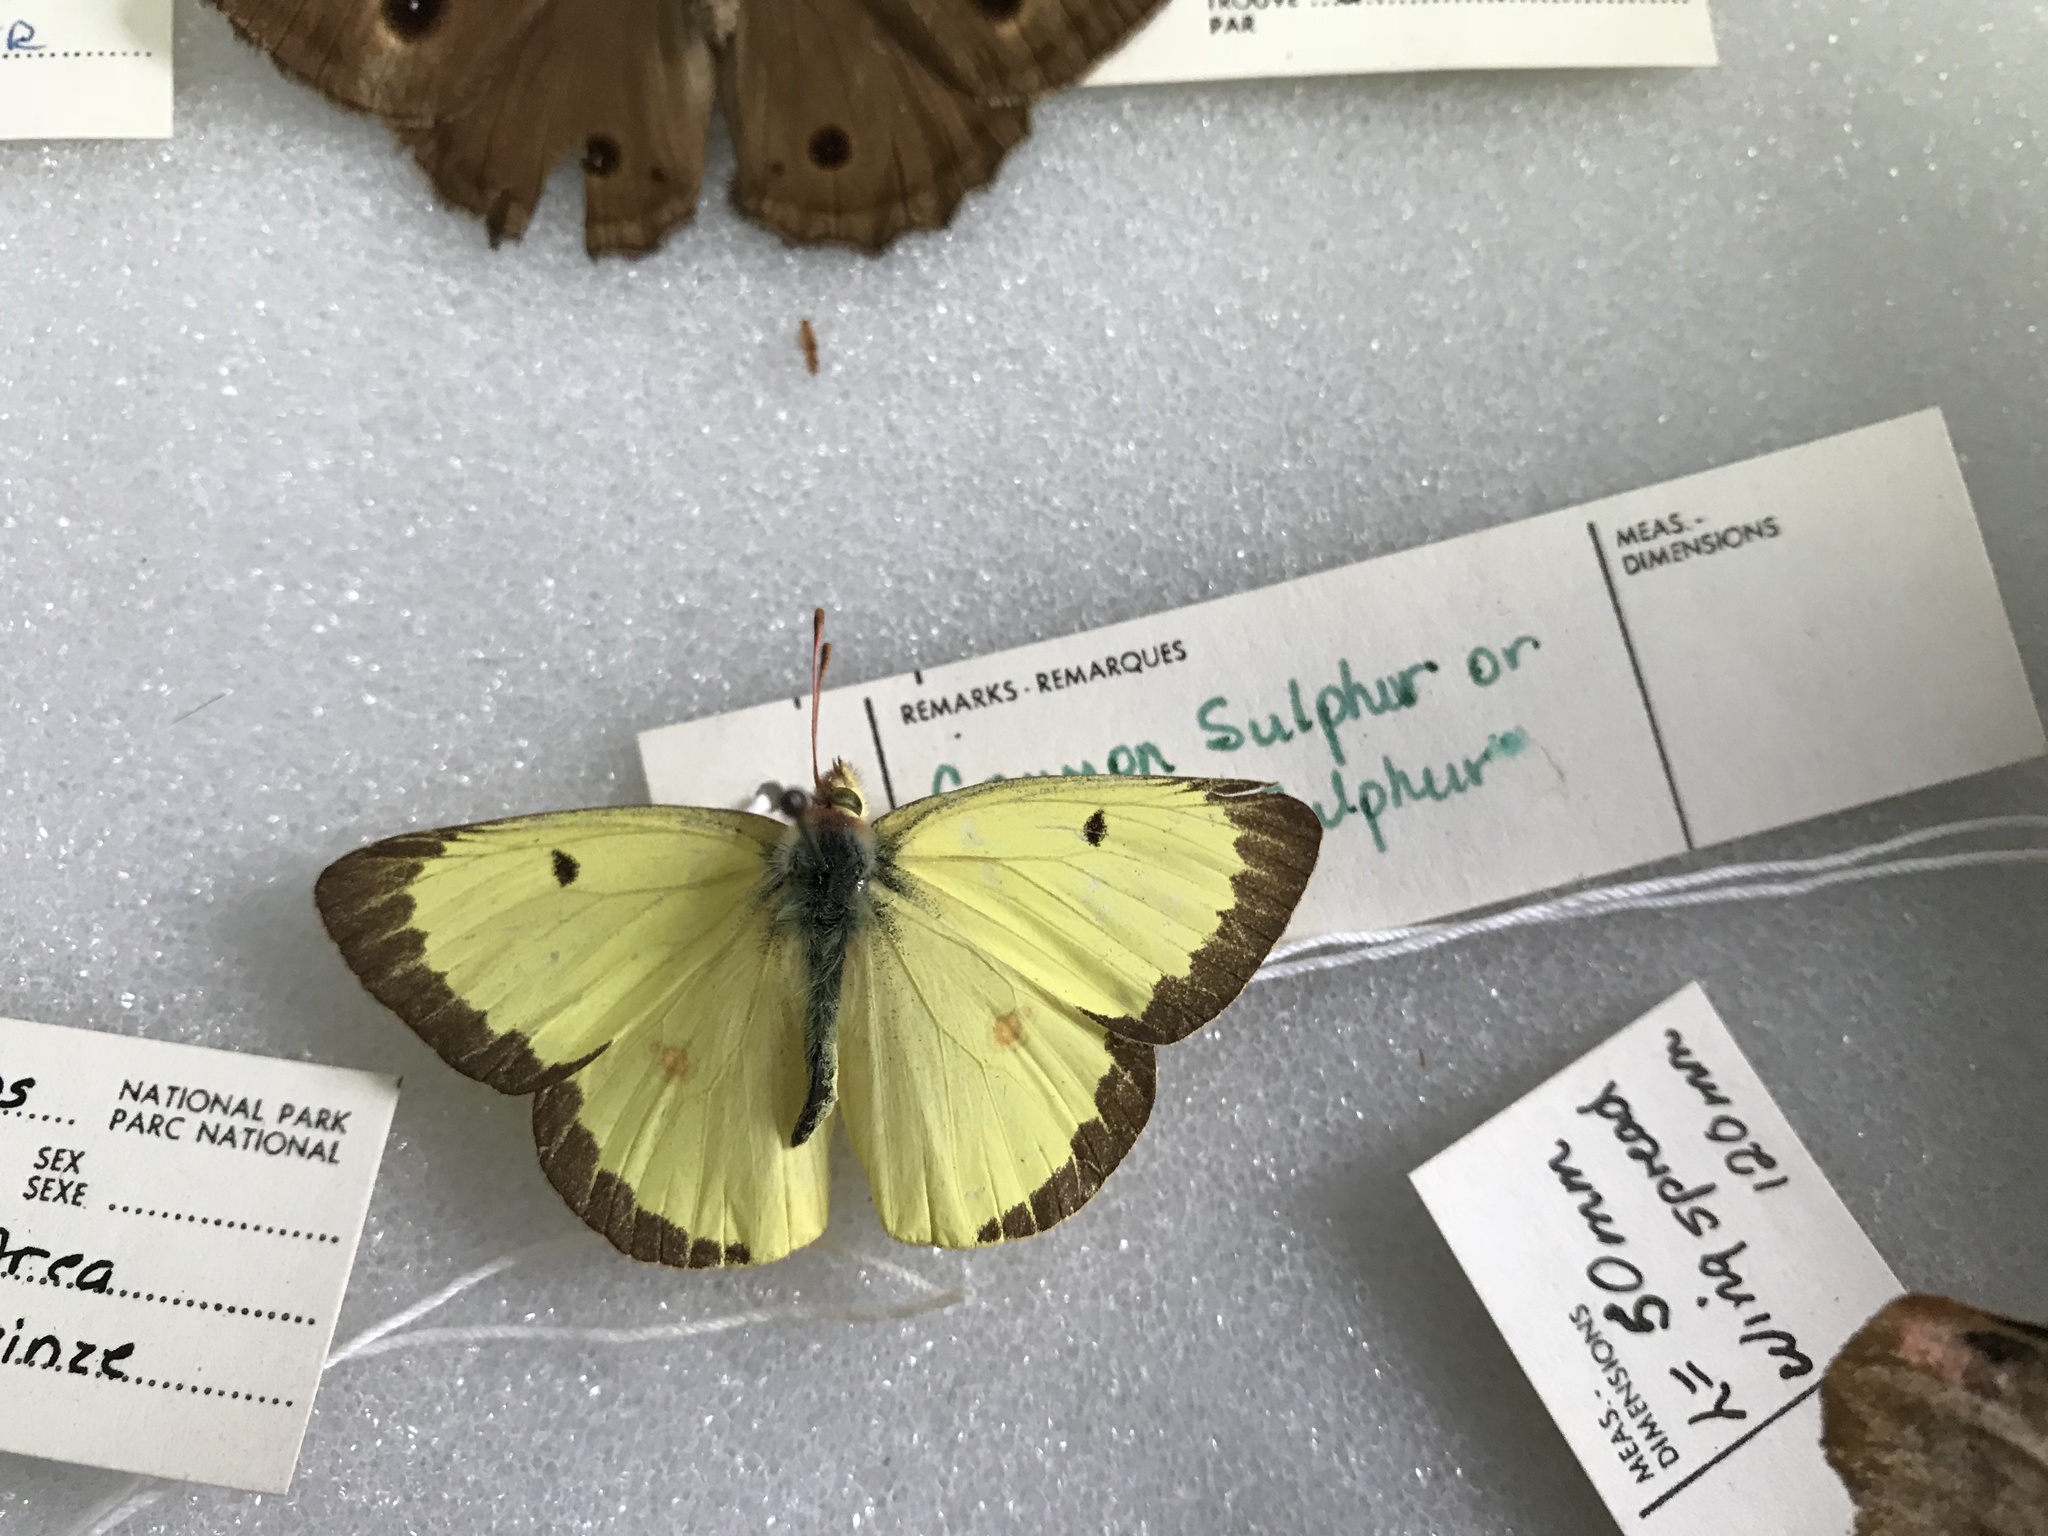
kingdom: Animalia
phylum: Arthropoda
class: Insecta
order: Lepidoptera
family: Pieridae
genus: Colias
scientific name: Colias philodice
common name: Clouded sulphur
